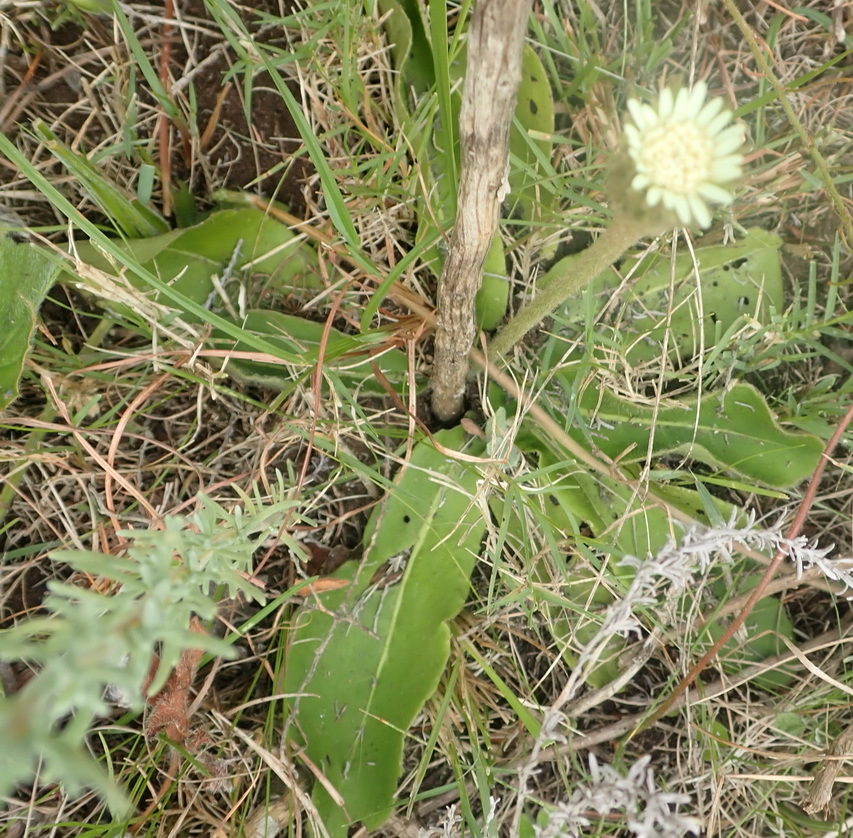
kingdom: Plantae
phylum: Tracheophyta
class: Magnoliopsida
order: Asterales
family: Asteraceae
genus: Piloselloides
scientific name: Piloselloides hirsuta
